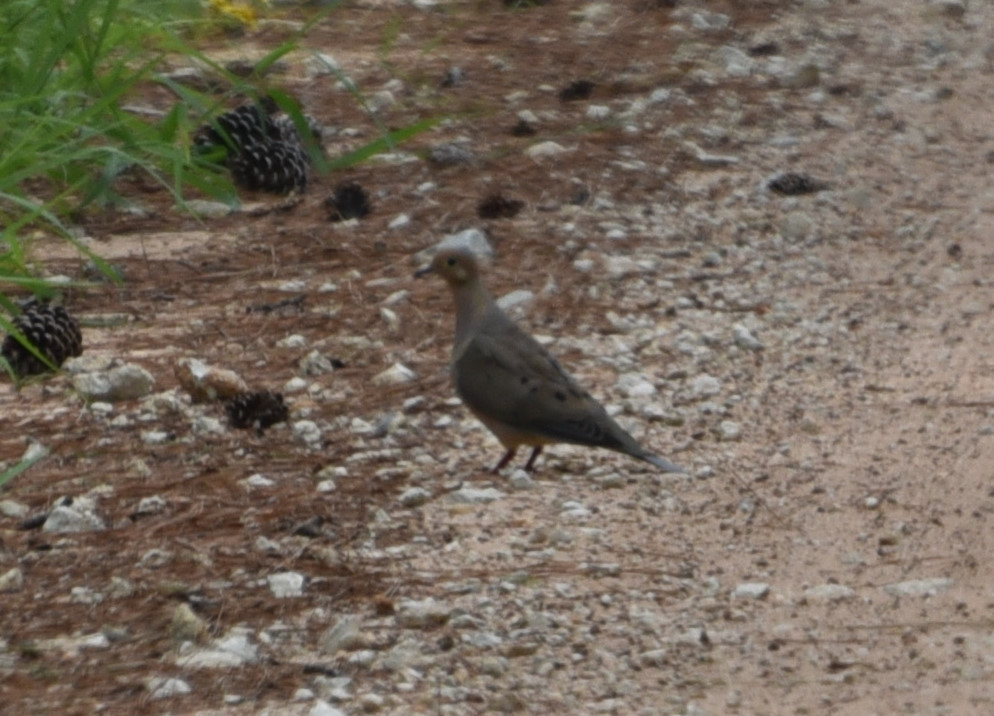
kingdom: Animalia
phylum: Chordata
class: Aves
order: Columbiformes
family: Columbidae
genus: Zenaida
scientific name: Zenaida macroura
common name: Mourning dove
